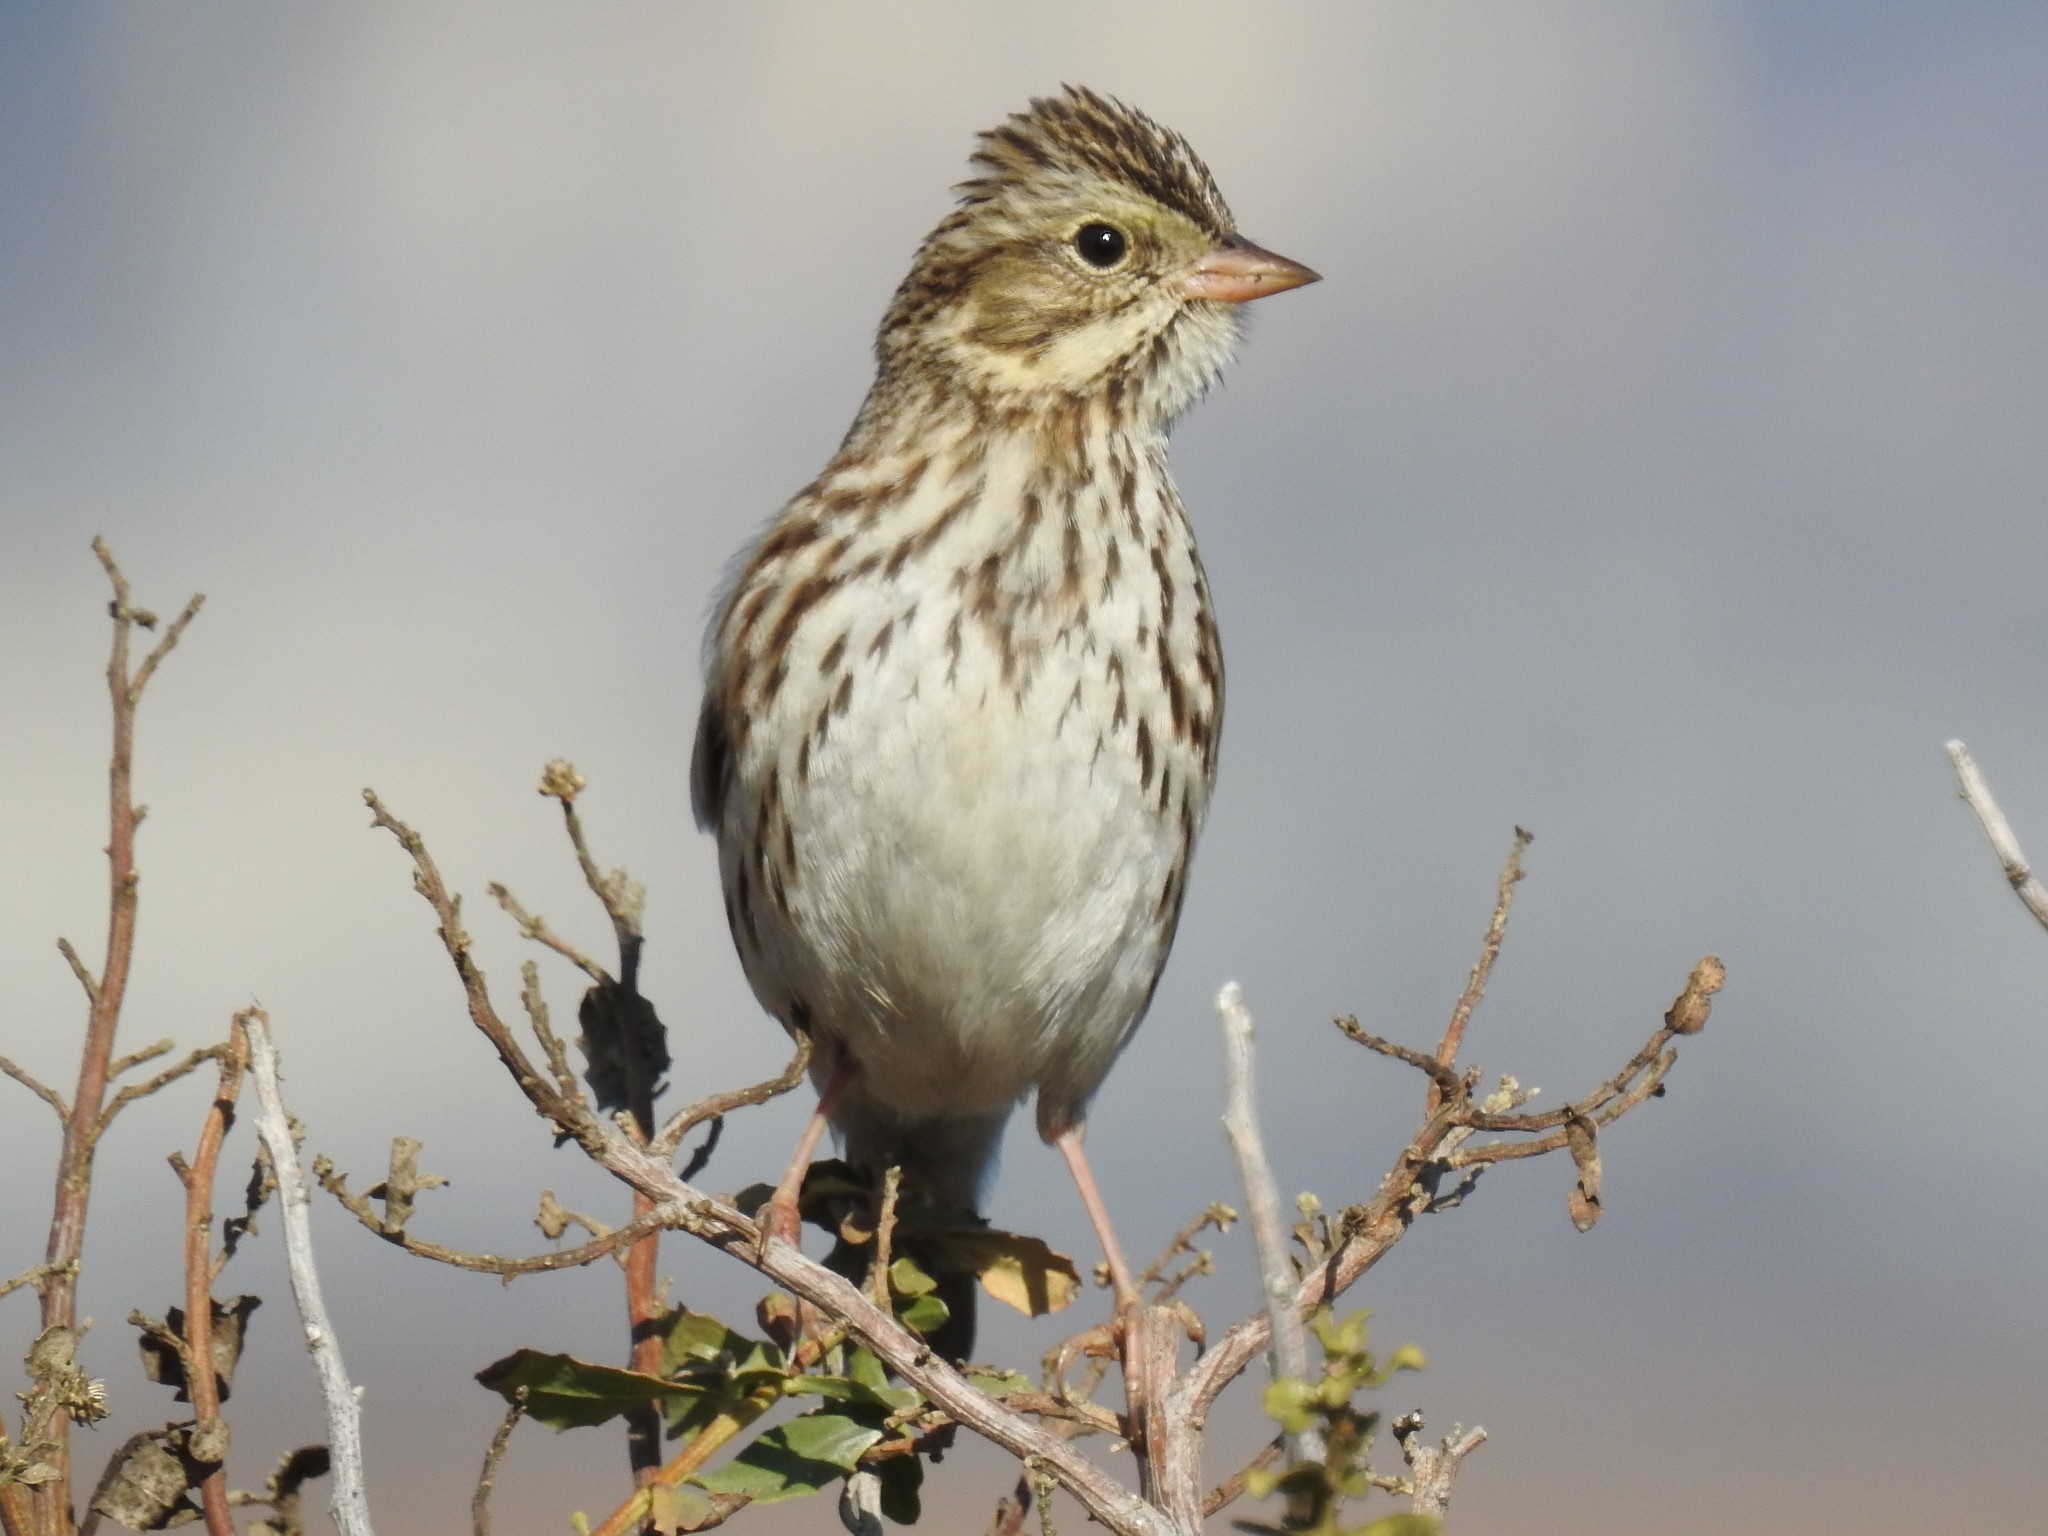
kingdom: Animalia
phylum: Chordata
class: Aves
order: Passeriformes
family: Passerellidae
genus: Passerculus
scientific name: Passerculus sandwichensis
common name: Savannah sparrow
